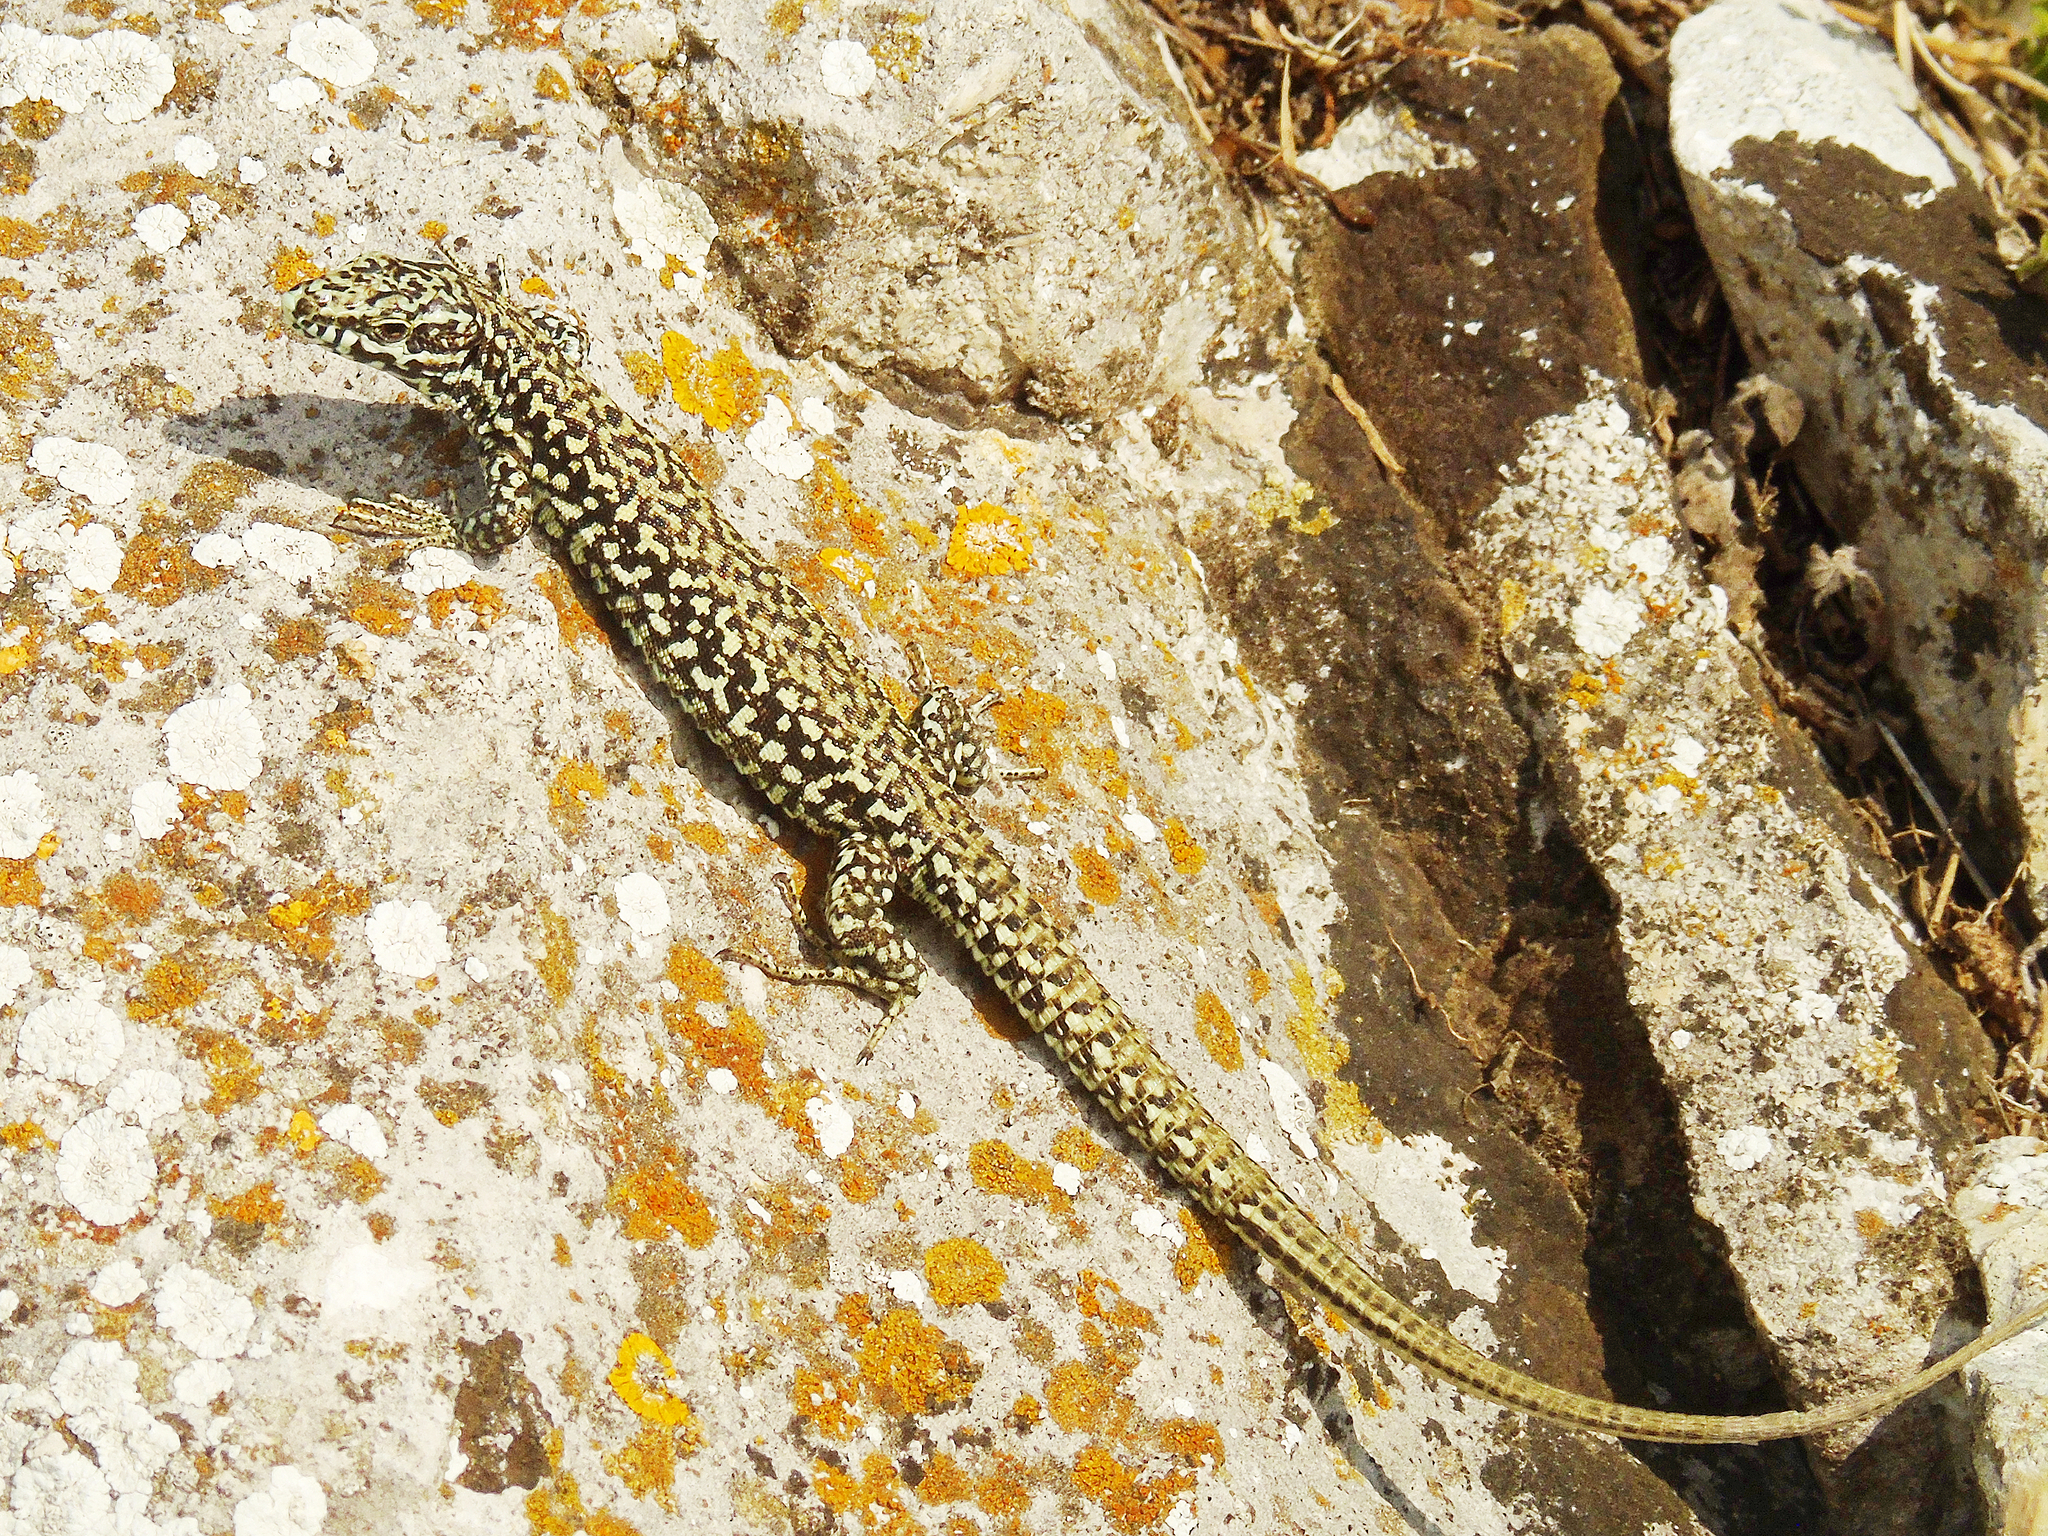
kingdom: Animalia
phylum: Chordata
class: Squamata
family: Lacertidae
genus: Podarcis
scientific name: Podarcis muralis
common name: Common wall lizard
